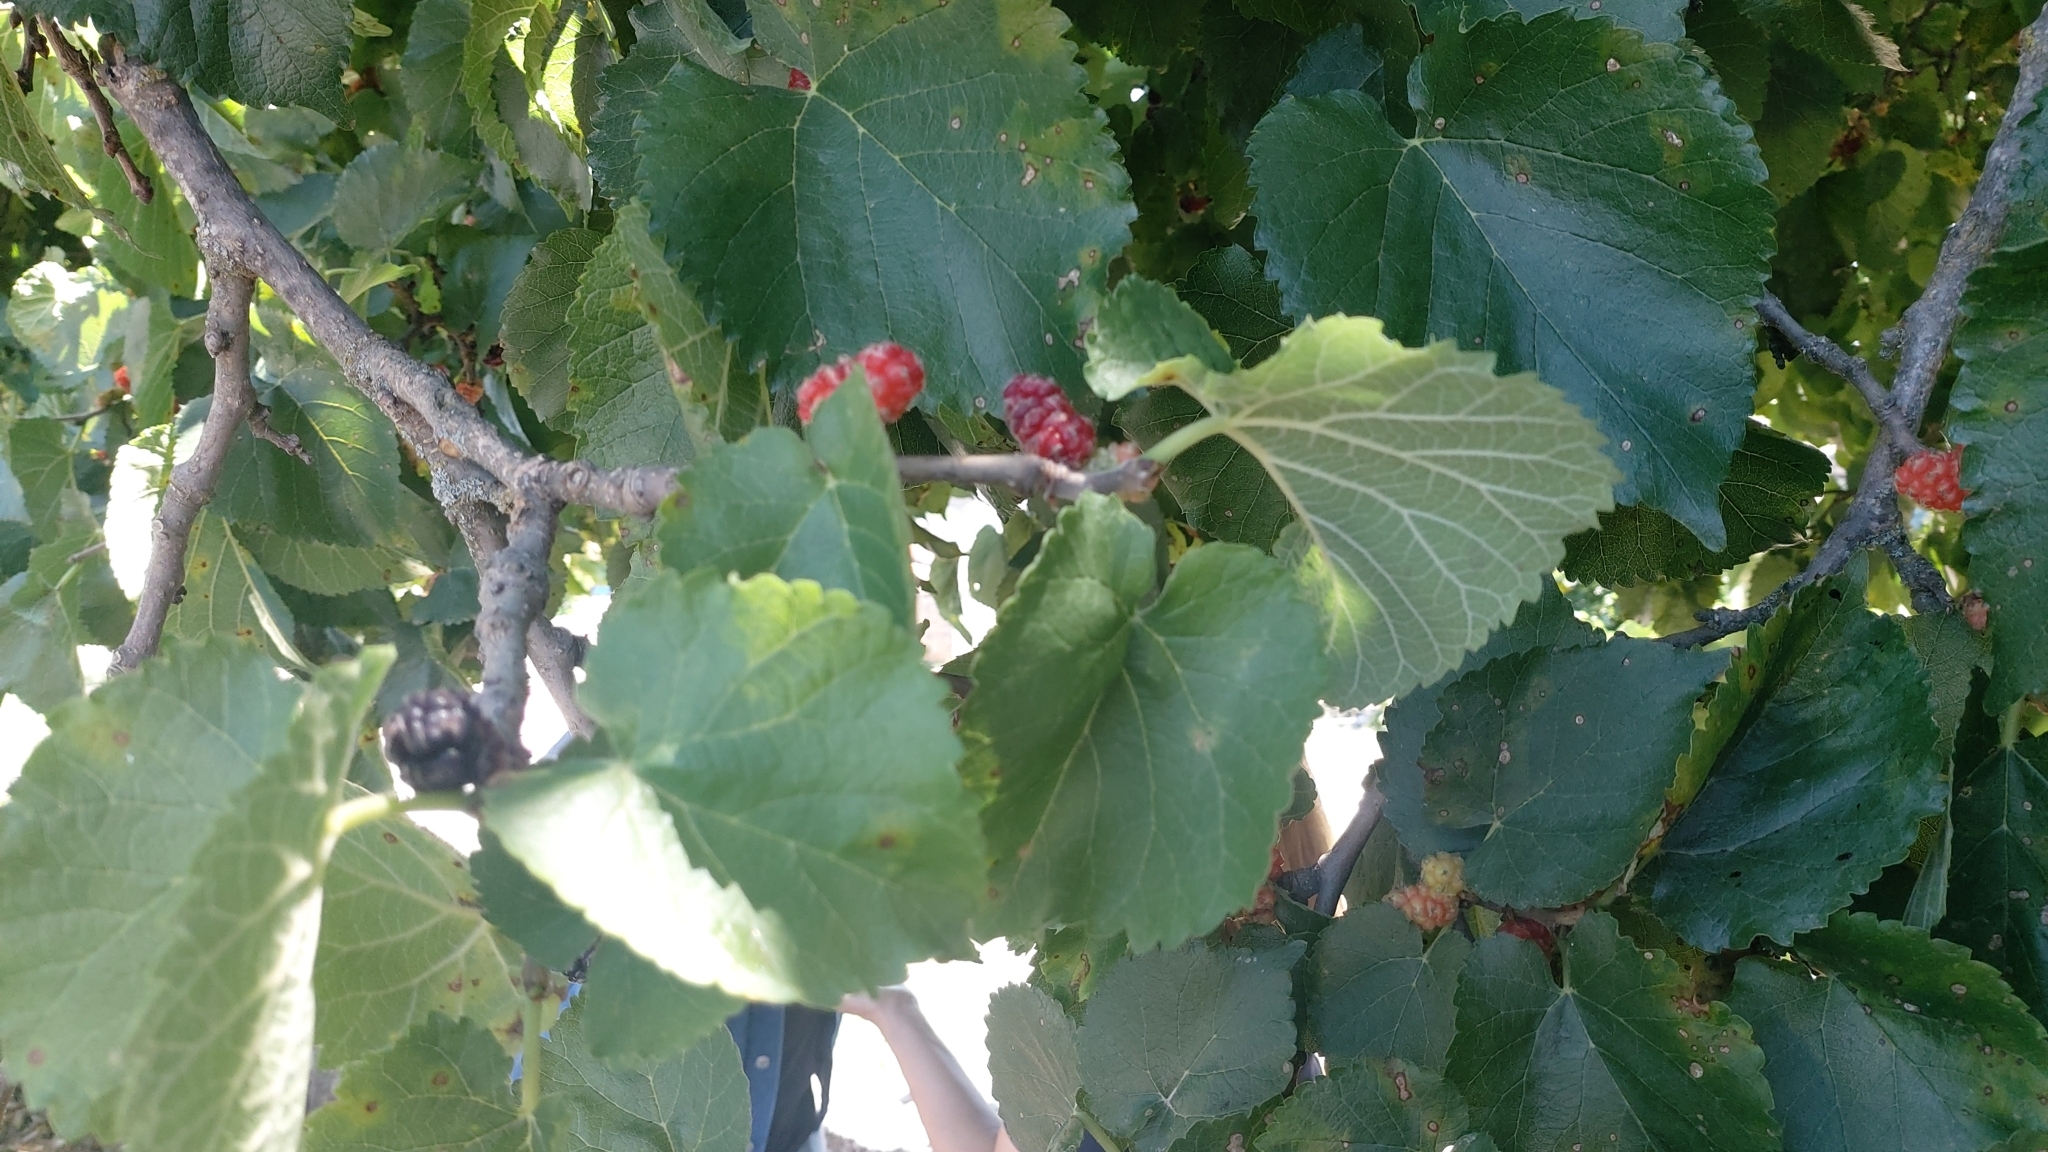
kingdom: Plantae
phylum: Tracheophyta
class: Magnoliopsida
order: Rosales
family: Moraceae
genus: Morus
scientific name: Morus nigra
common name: Black mulberry
